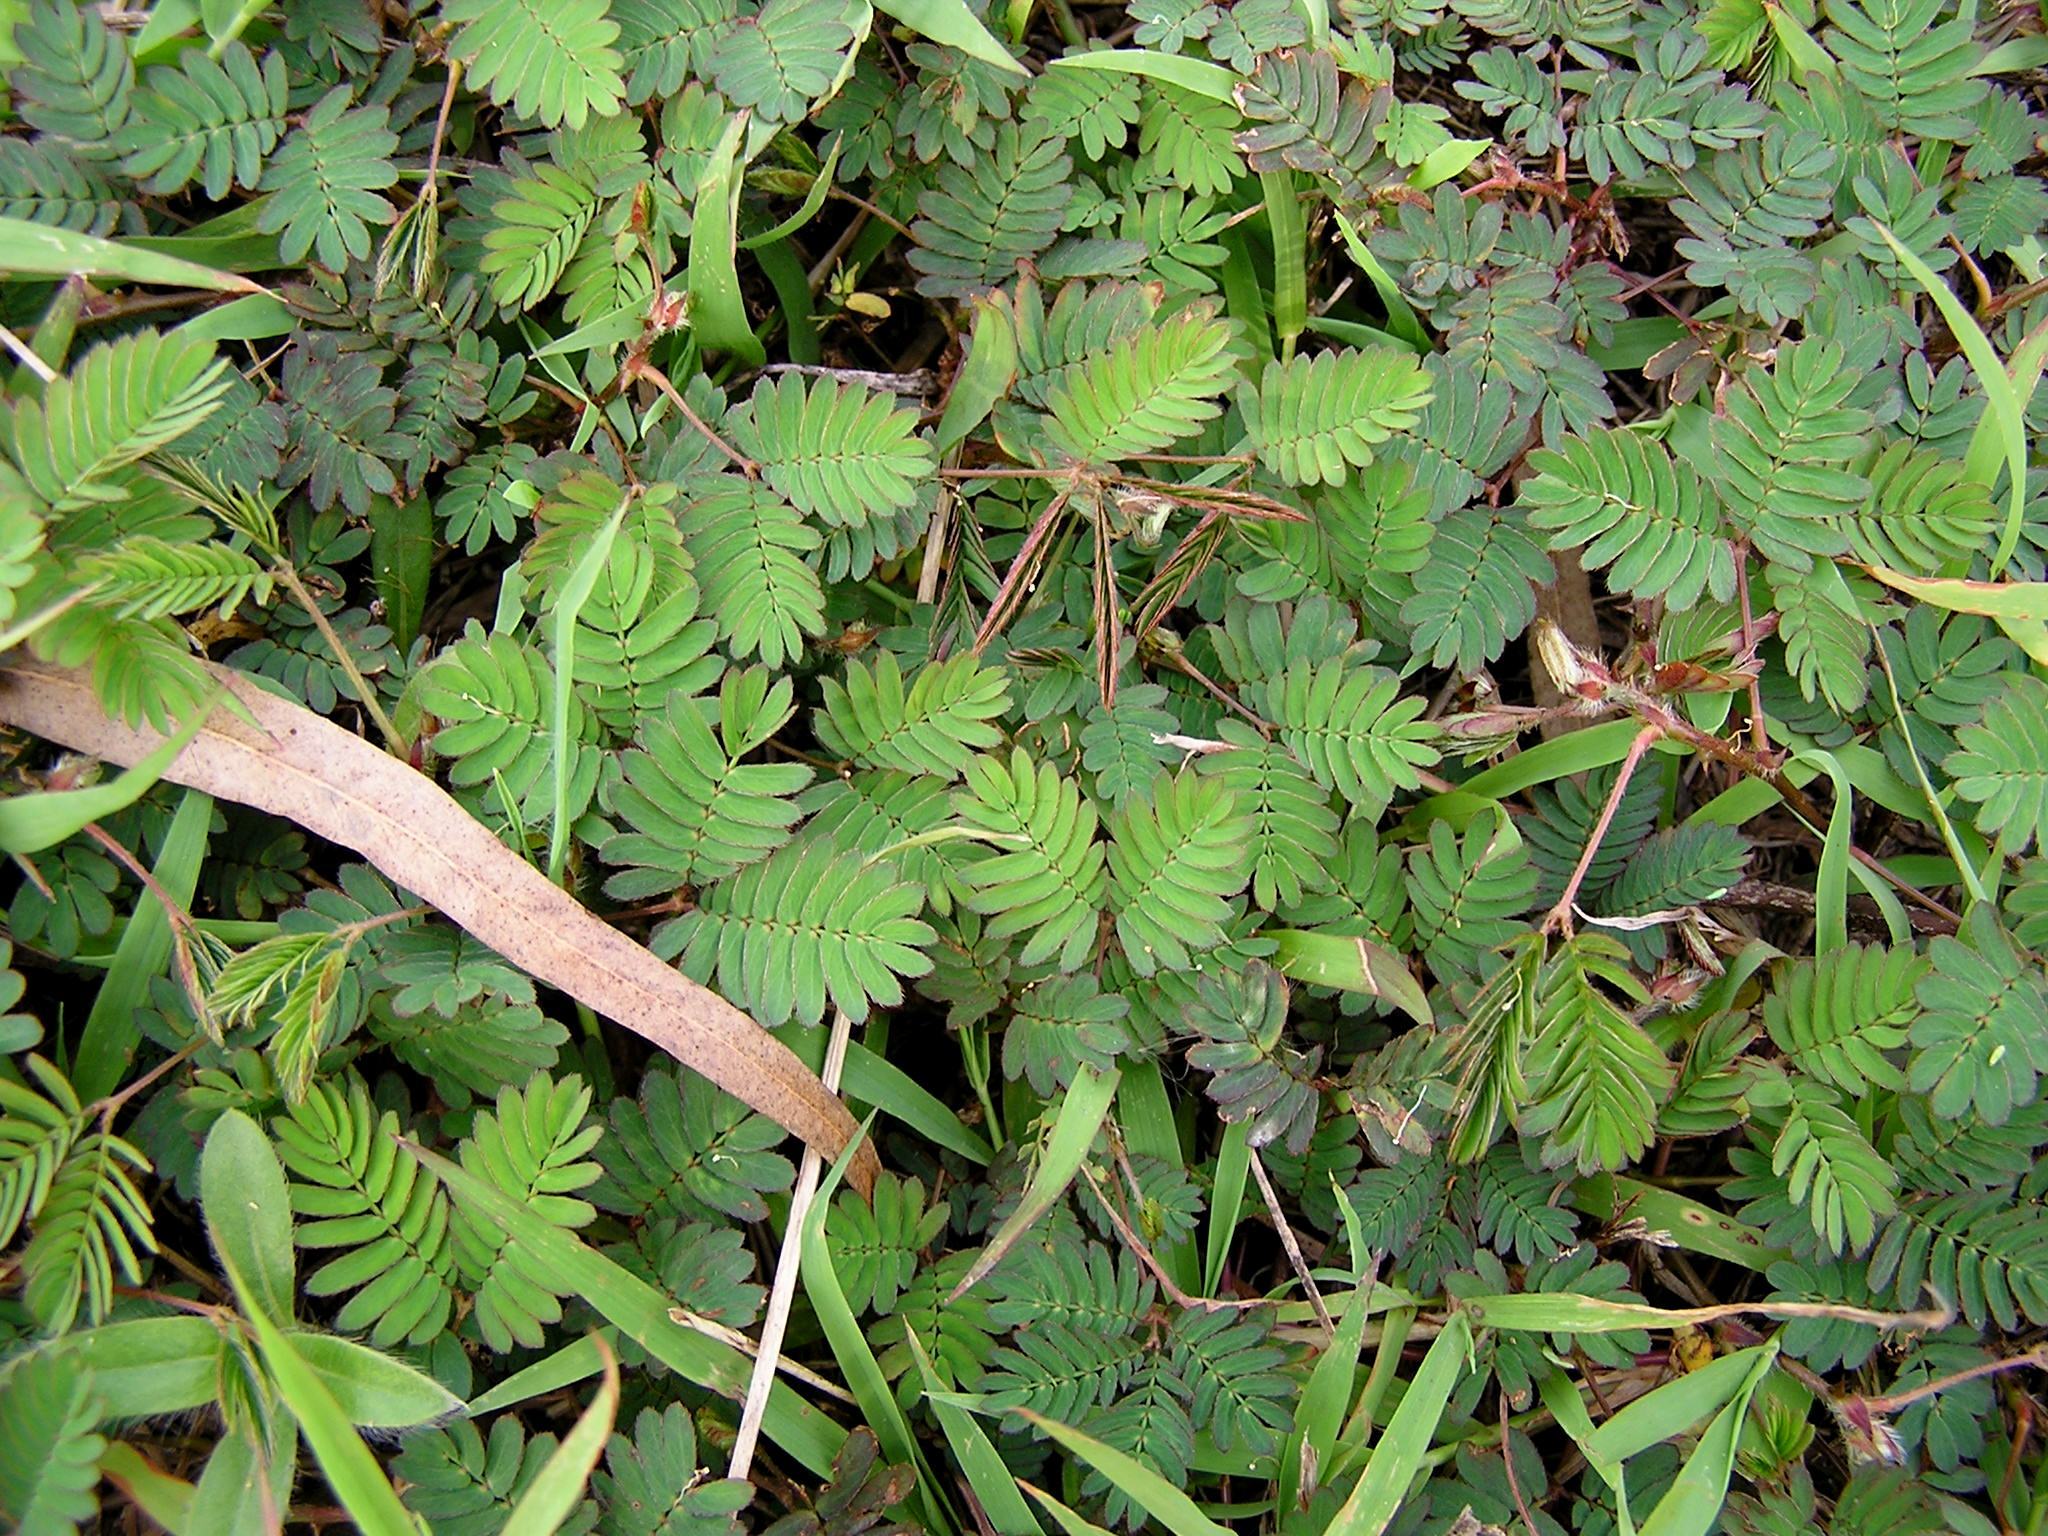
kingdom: Plantae
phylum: Tracheophyta
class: Magnoliopsida
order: Fabales
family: Fabaceae
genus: Mimosa
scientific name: Mimosa pudica
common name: Sensitive plant
